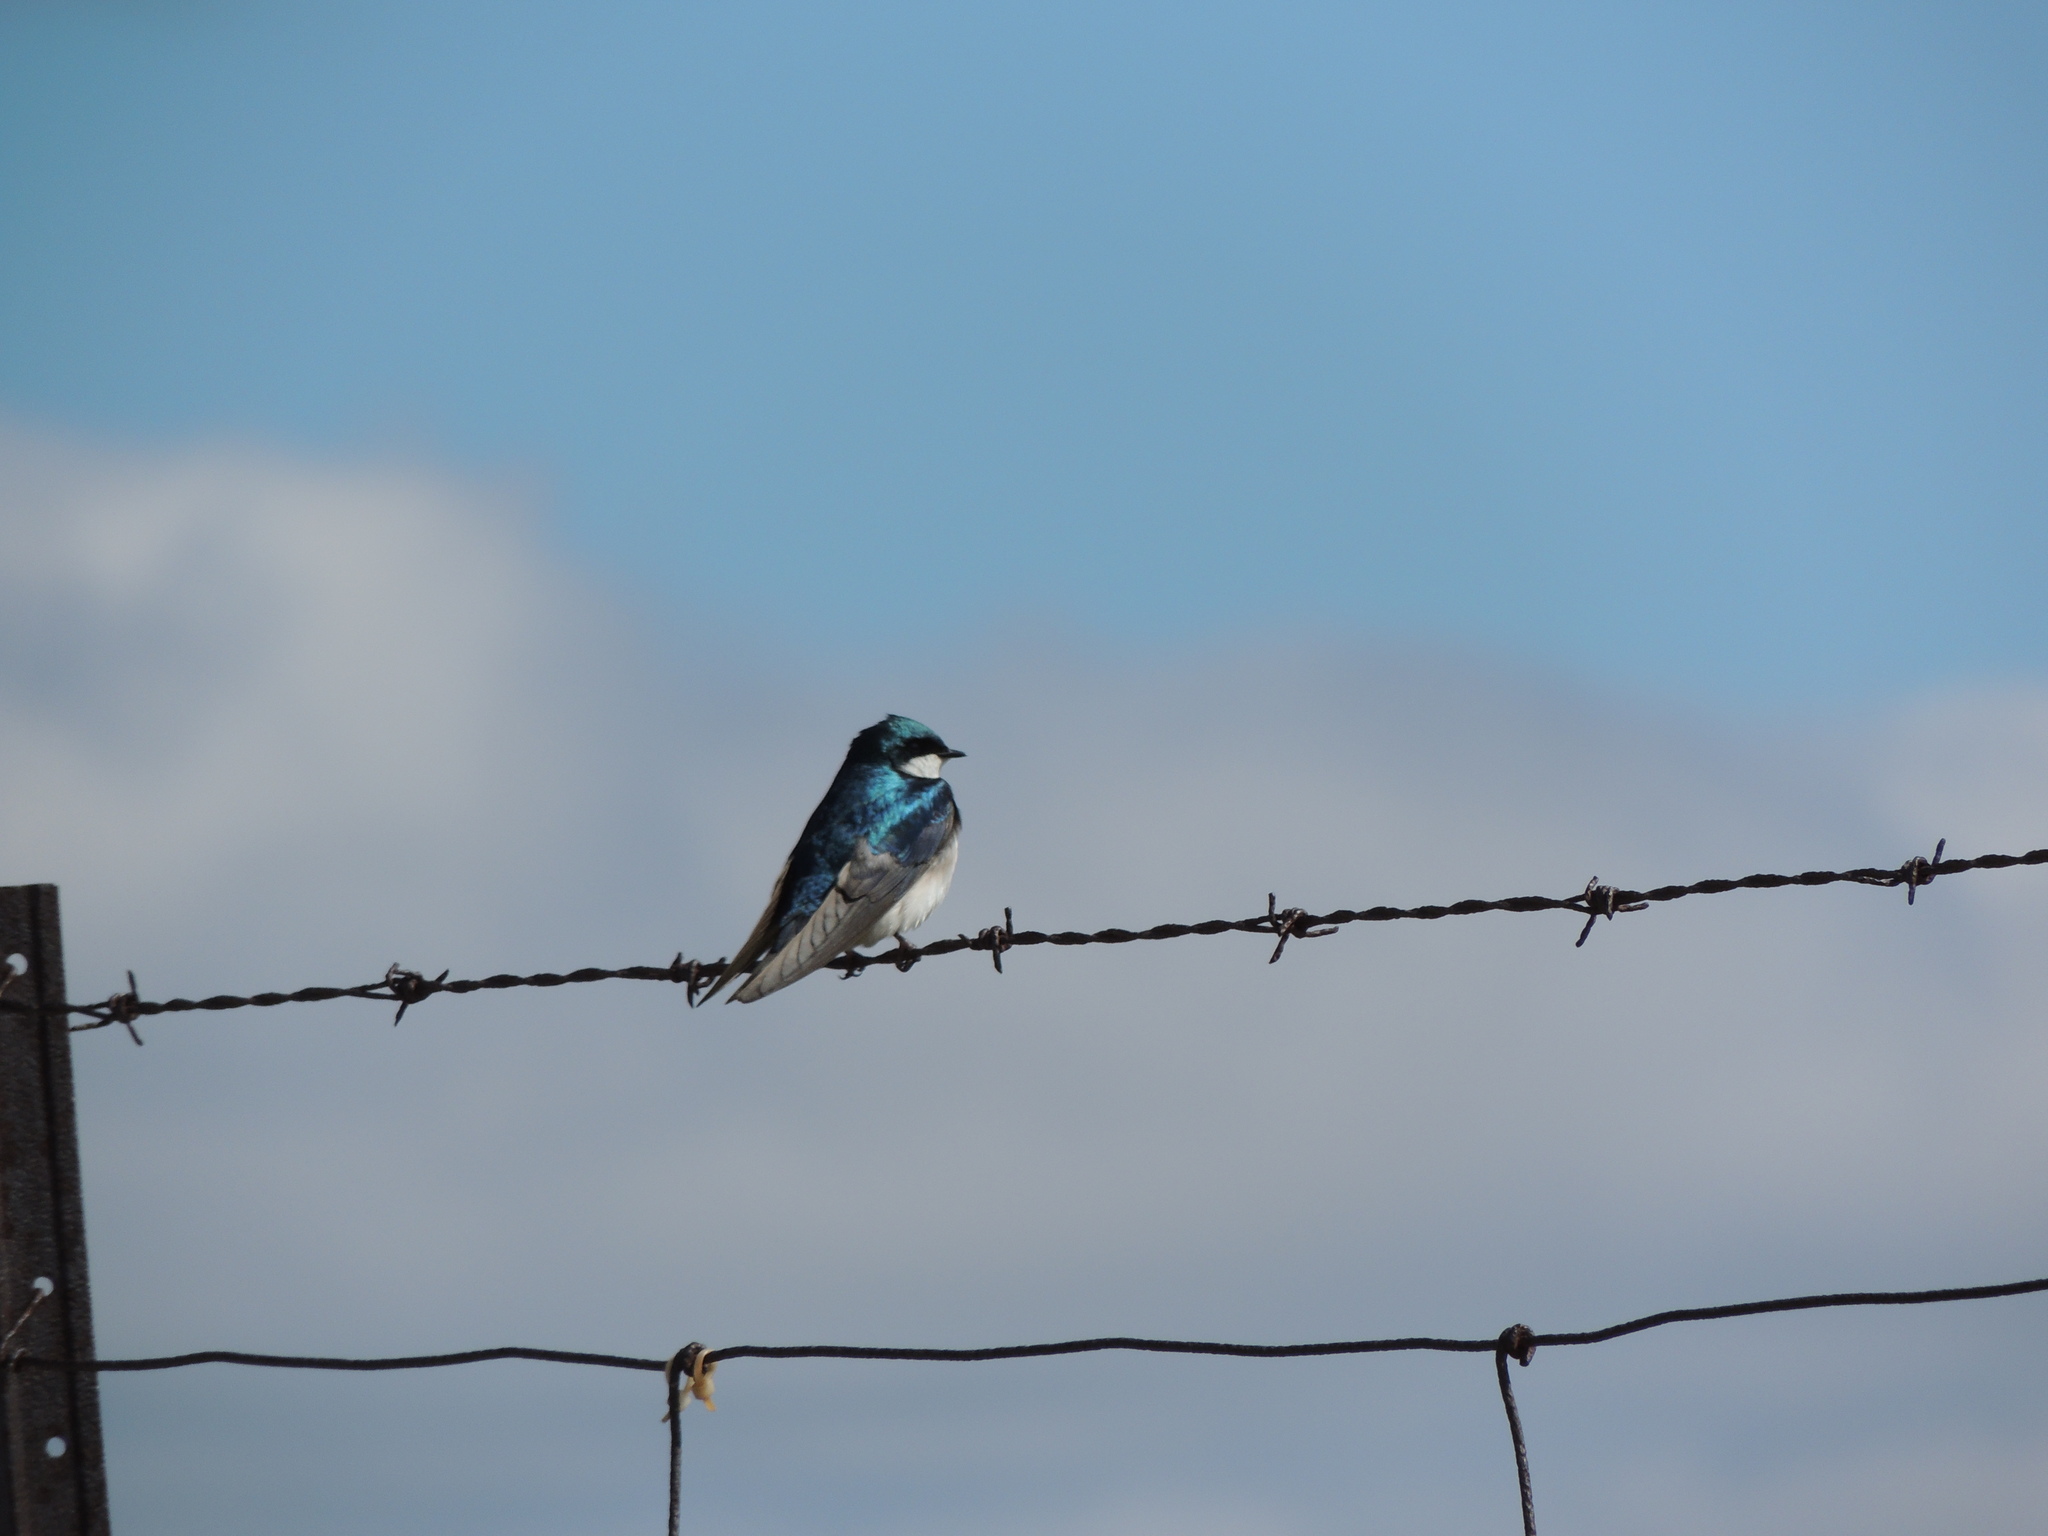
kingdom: Animalia
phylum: Chordata
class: Aves
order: Passeriformes
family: Hirundinidae
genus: Tachycineta
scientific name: Tachycineta bicolor
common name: Tree swallow
